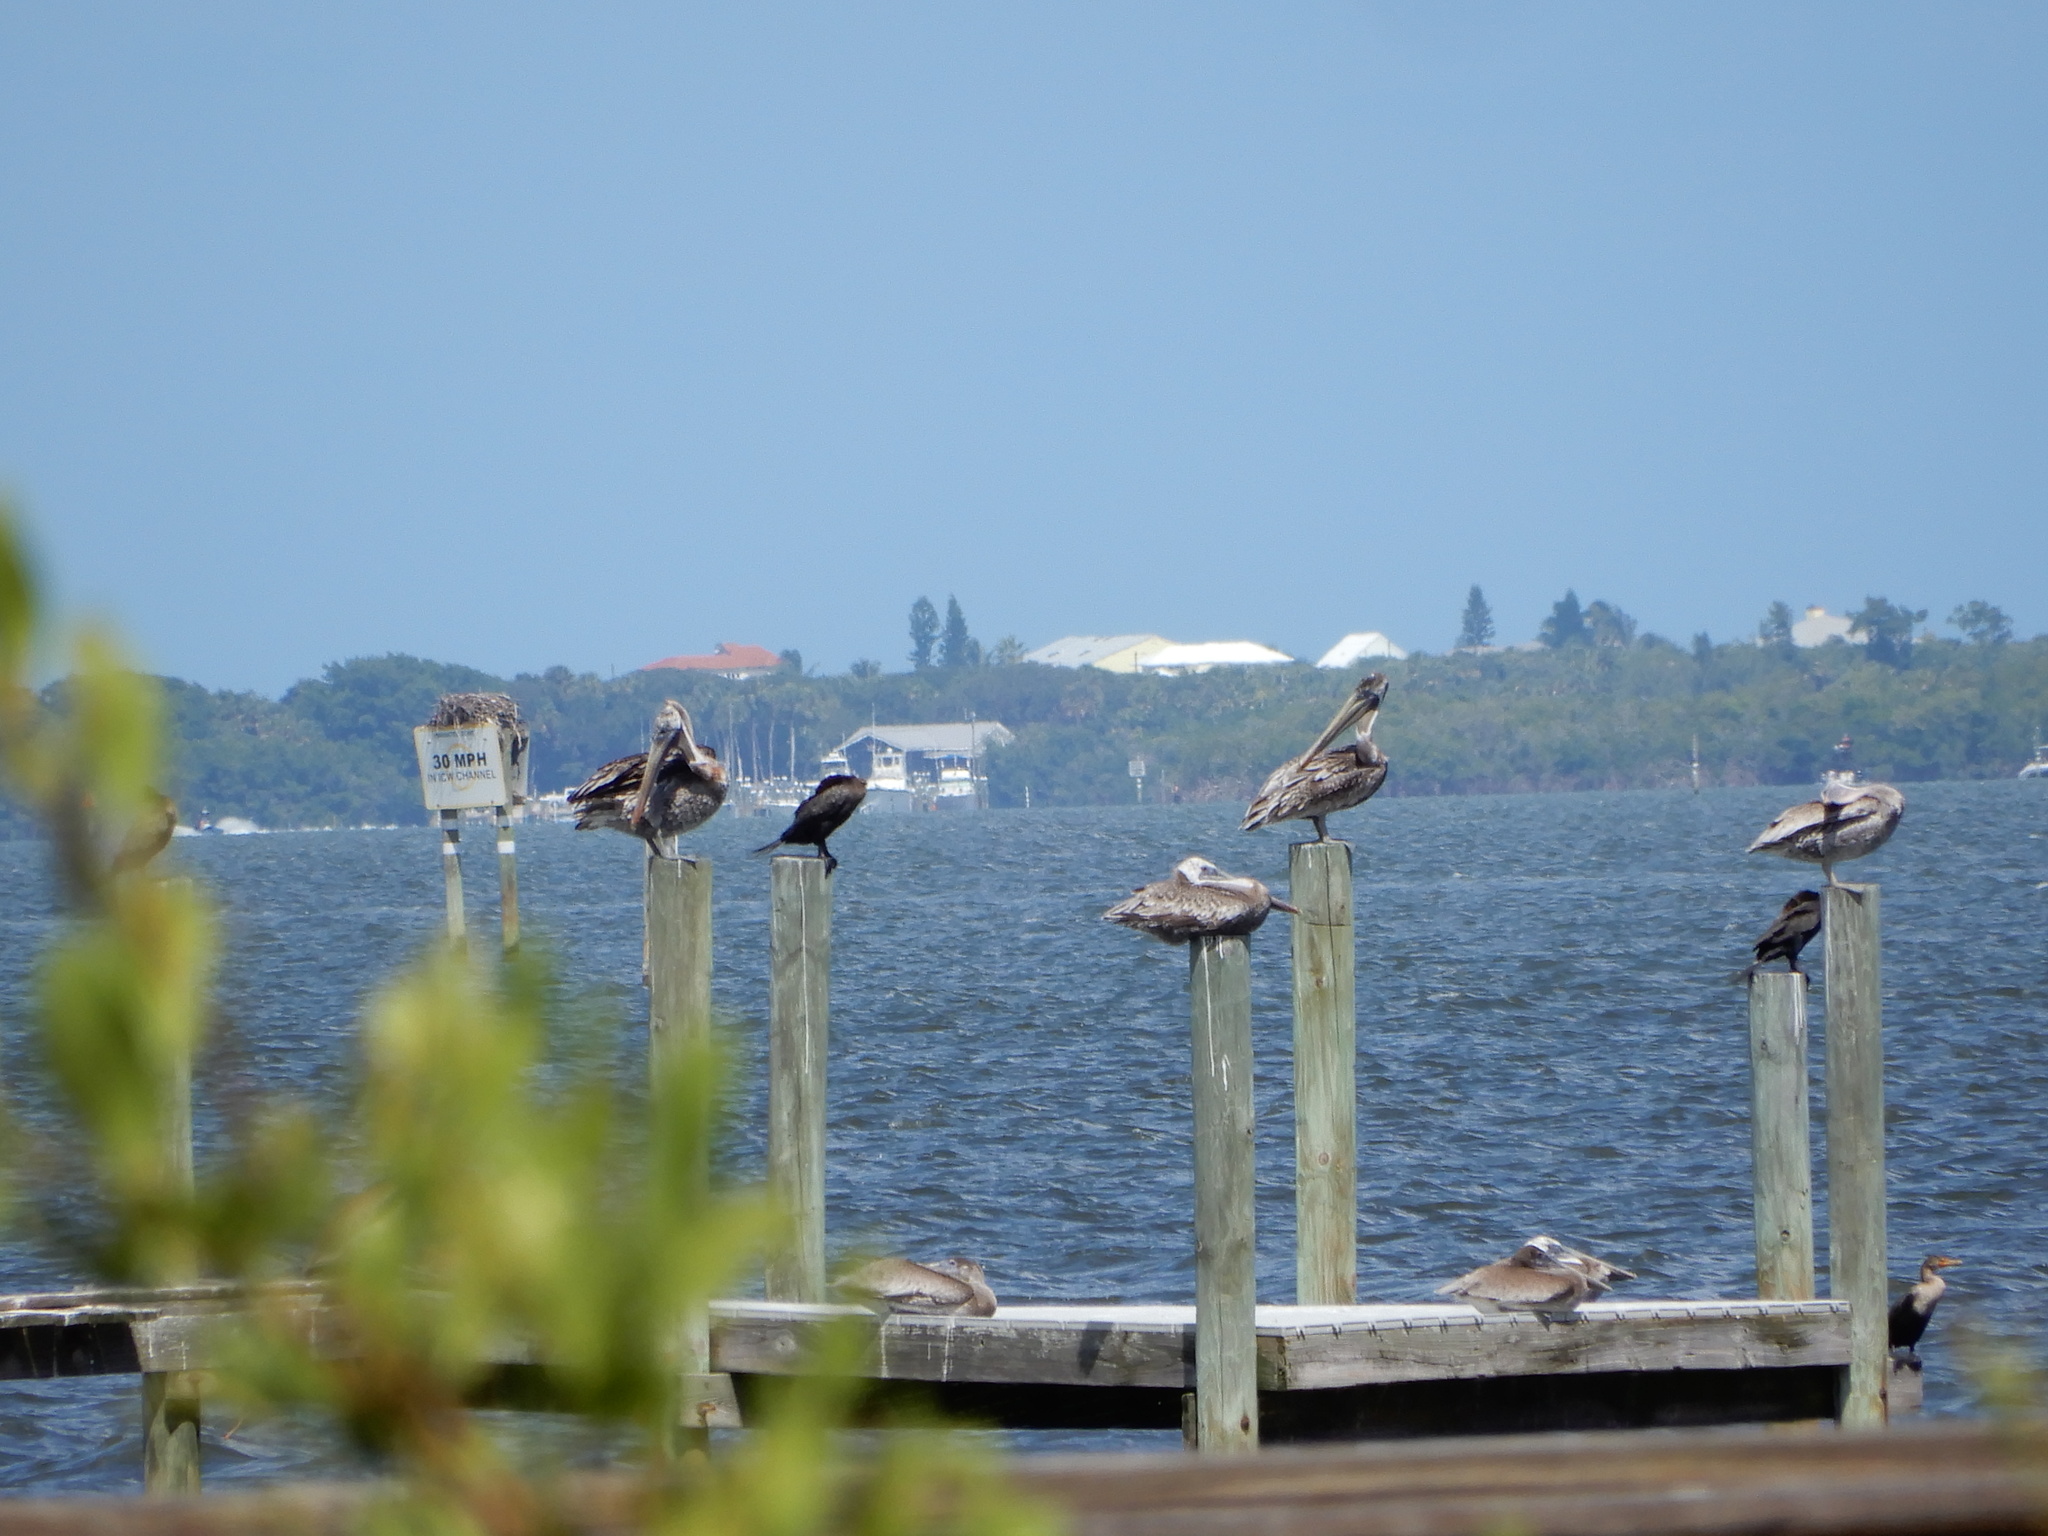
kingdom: Animalia
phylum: Chordata
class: Aves
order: Suliformes
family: Phalacrocoracidae
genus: Phalacrocorax
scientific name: Phalacrocorax auritus
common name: Double-crested cormorant
